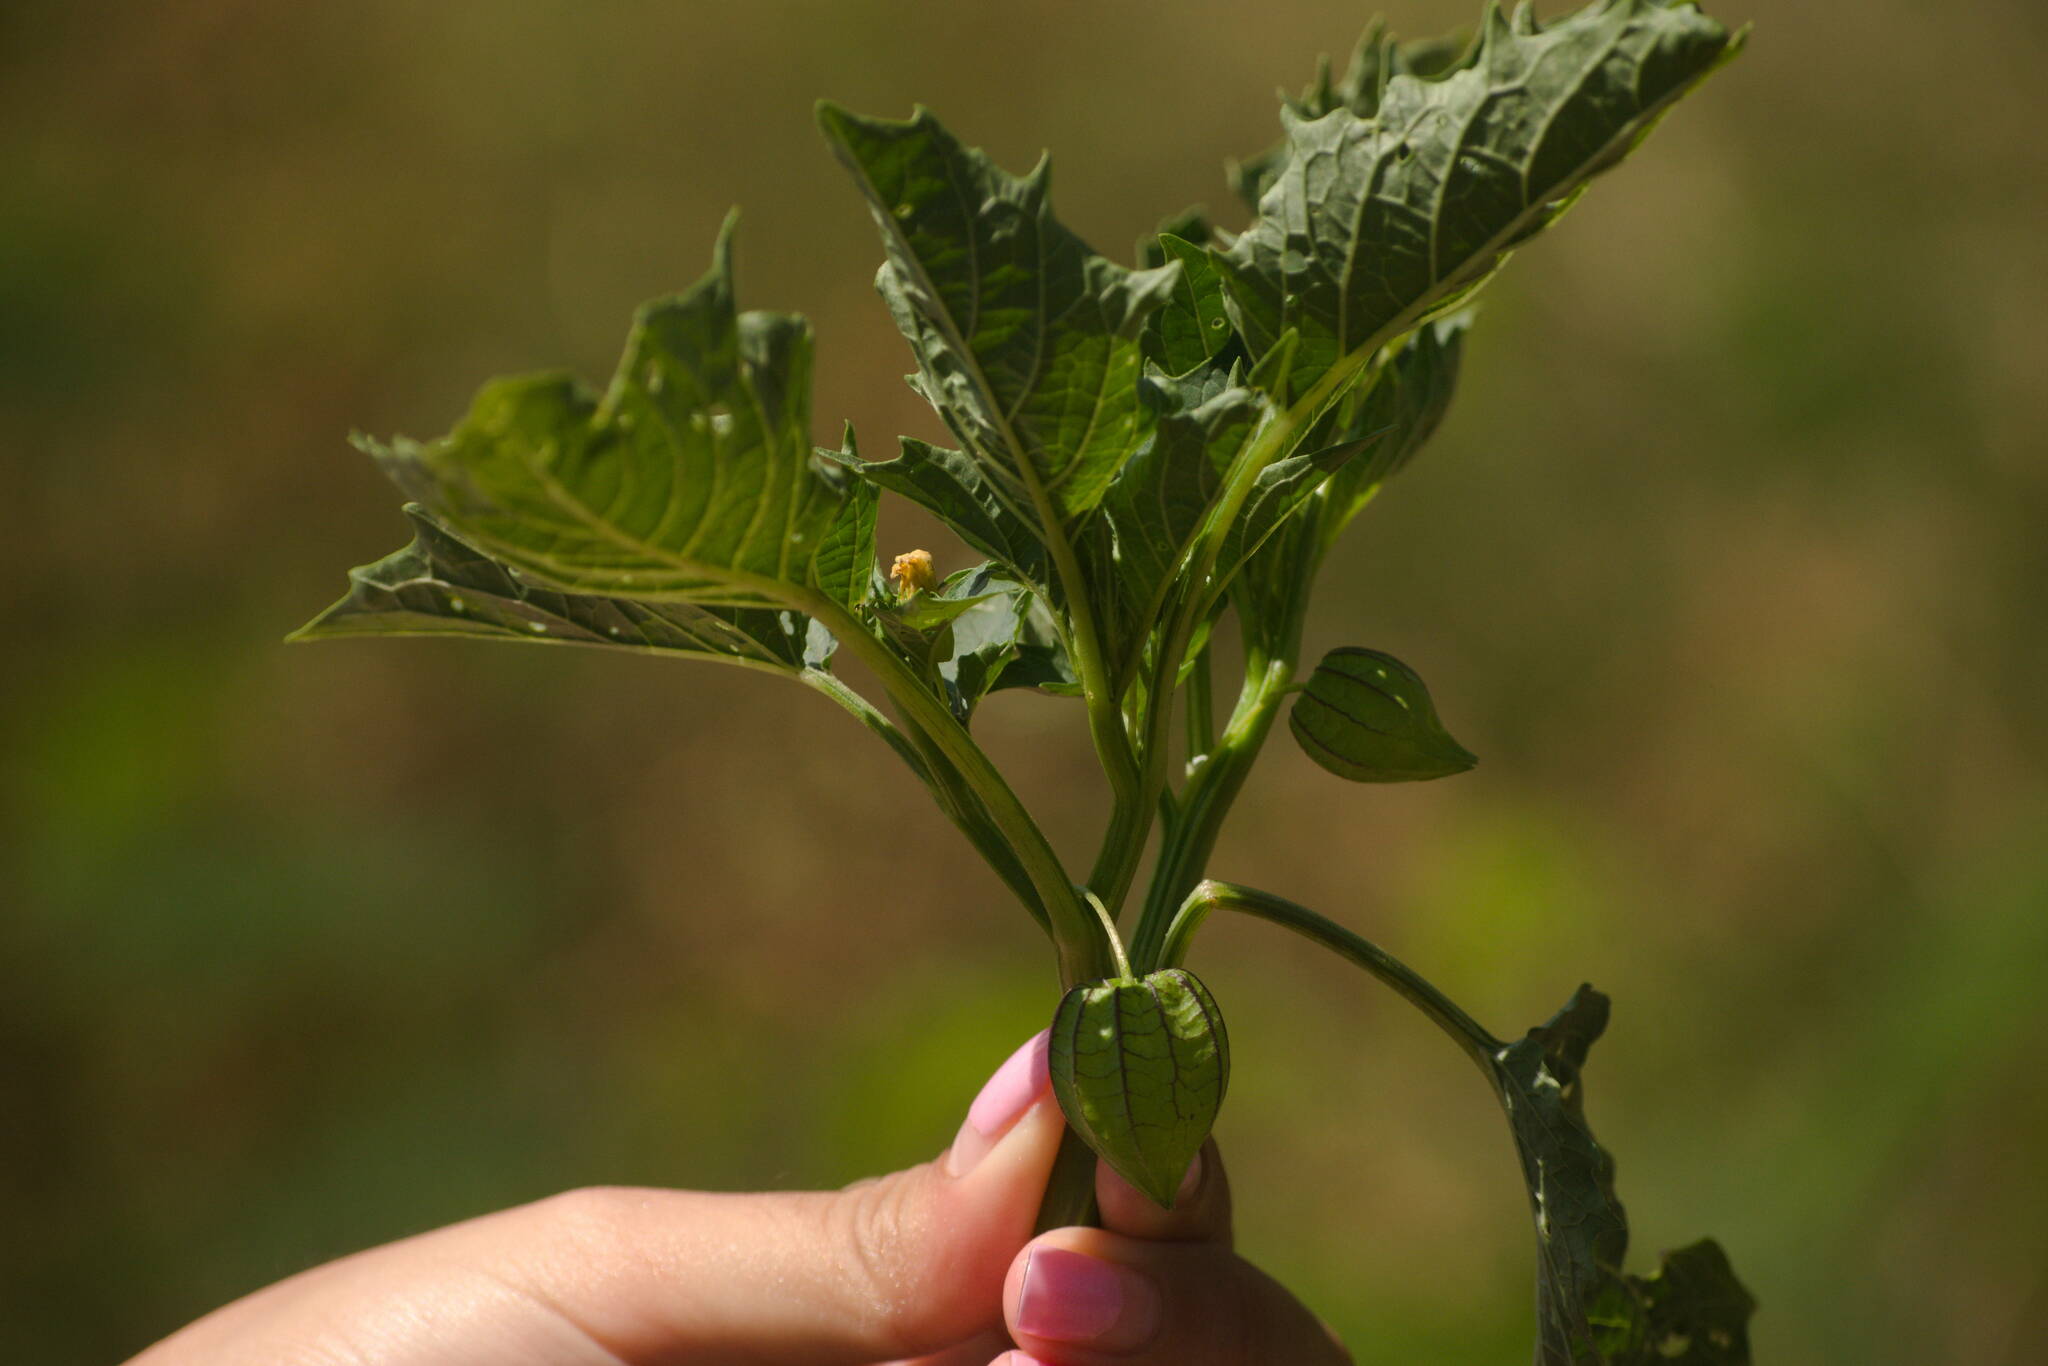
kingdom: Plantae
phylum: Tracheophyta
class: Magnoliopsida
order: Solanales
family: Solanaceae
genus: Physalis
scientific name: Physalis angulata
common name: Angular winter-cherry
